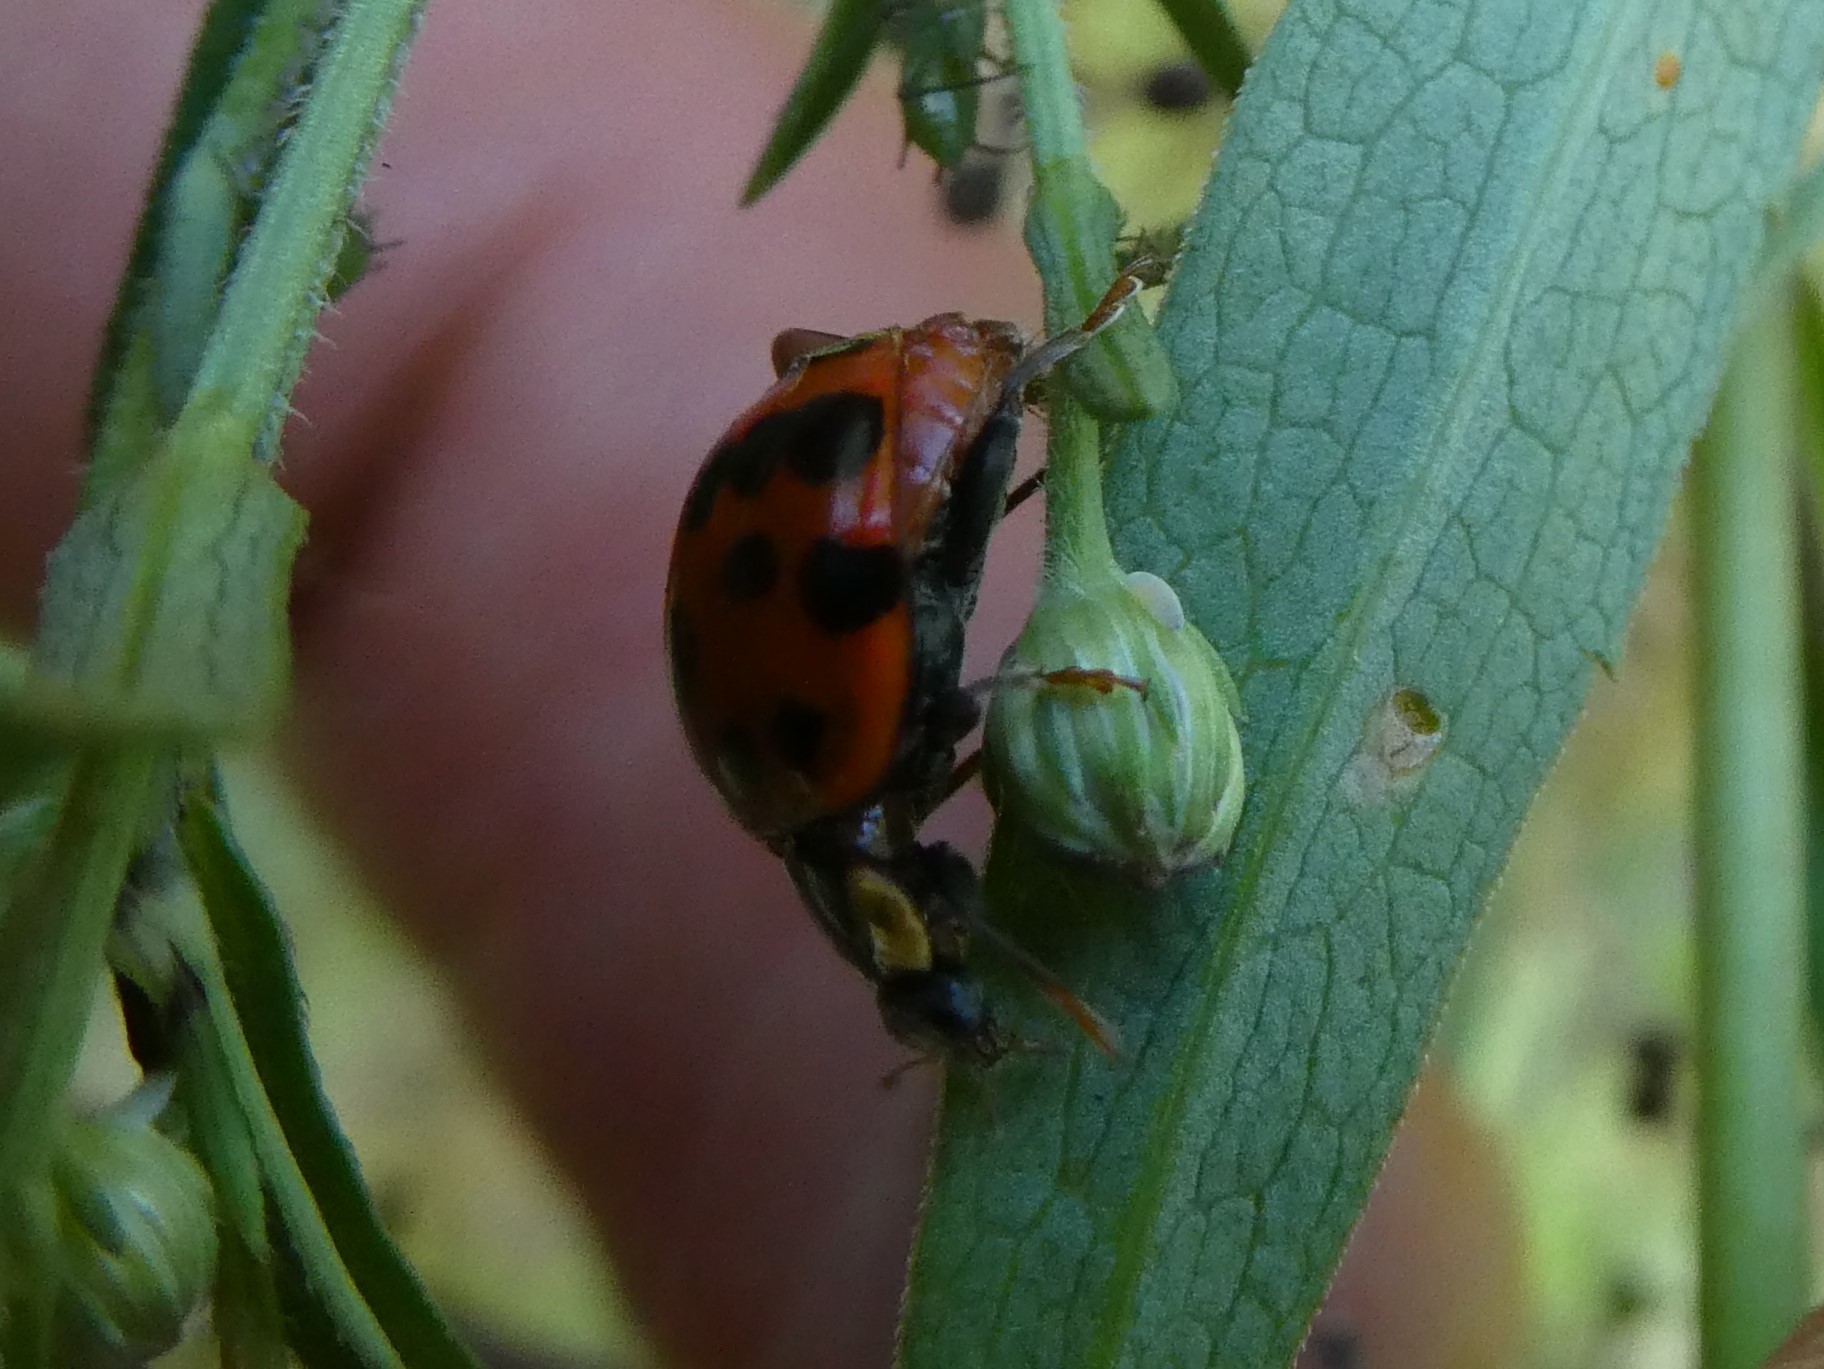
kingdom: Animalia
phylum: Arthropoda
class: Insecta
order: Coleoptera
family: Coccinellidae
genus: Harmonia
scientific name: Harmonia axyridis
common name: Harlequin ladybird
